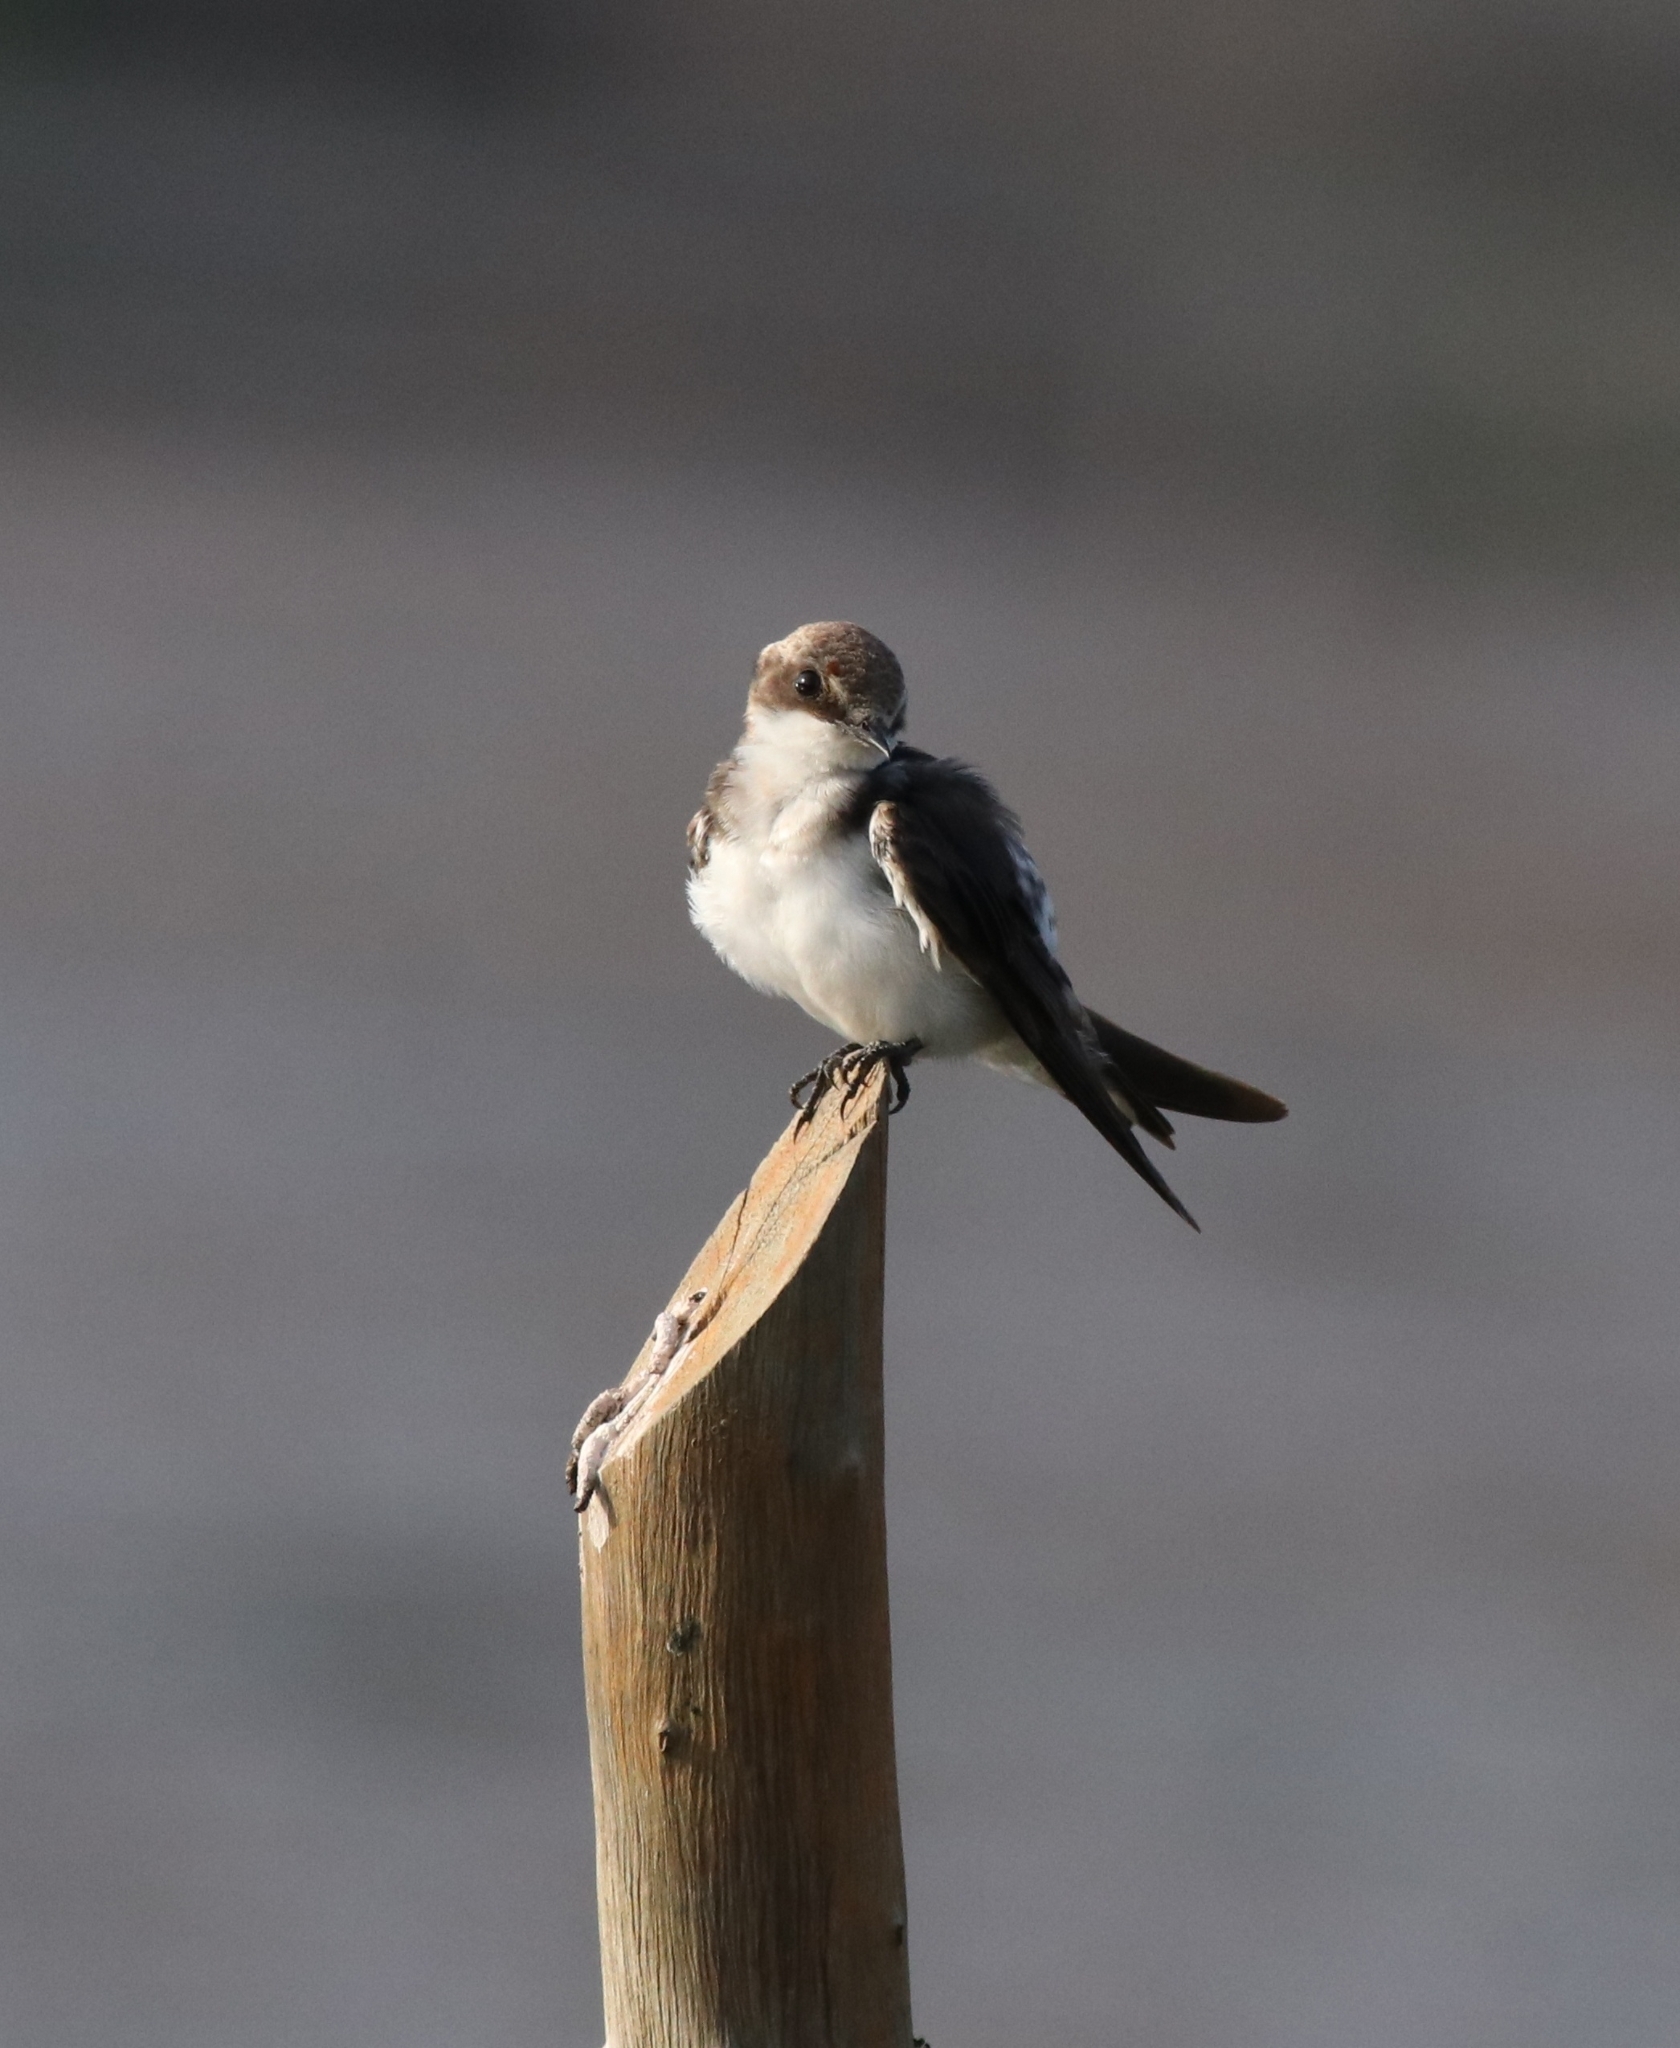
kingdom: Animalia
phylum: Chordata
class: Aves
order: Passeriformes
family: Hirundinidae
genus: Hirundo
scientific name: Hirundo smithii
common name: Wire-tailed swallow
